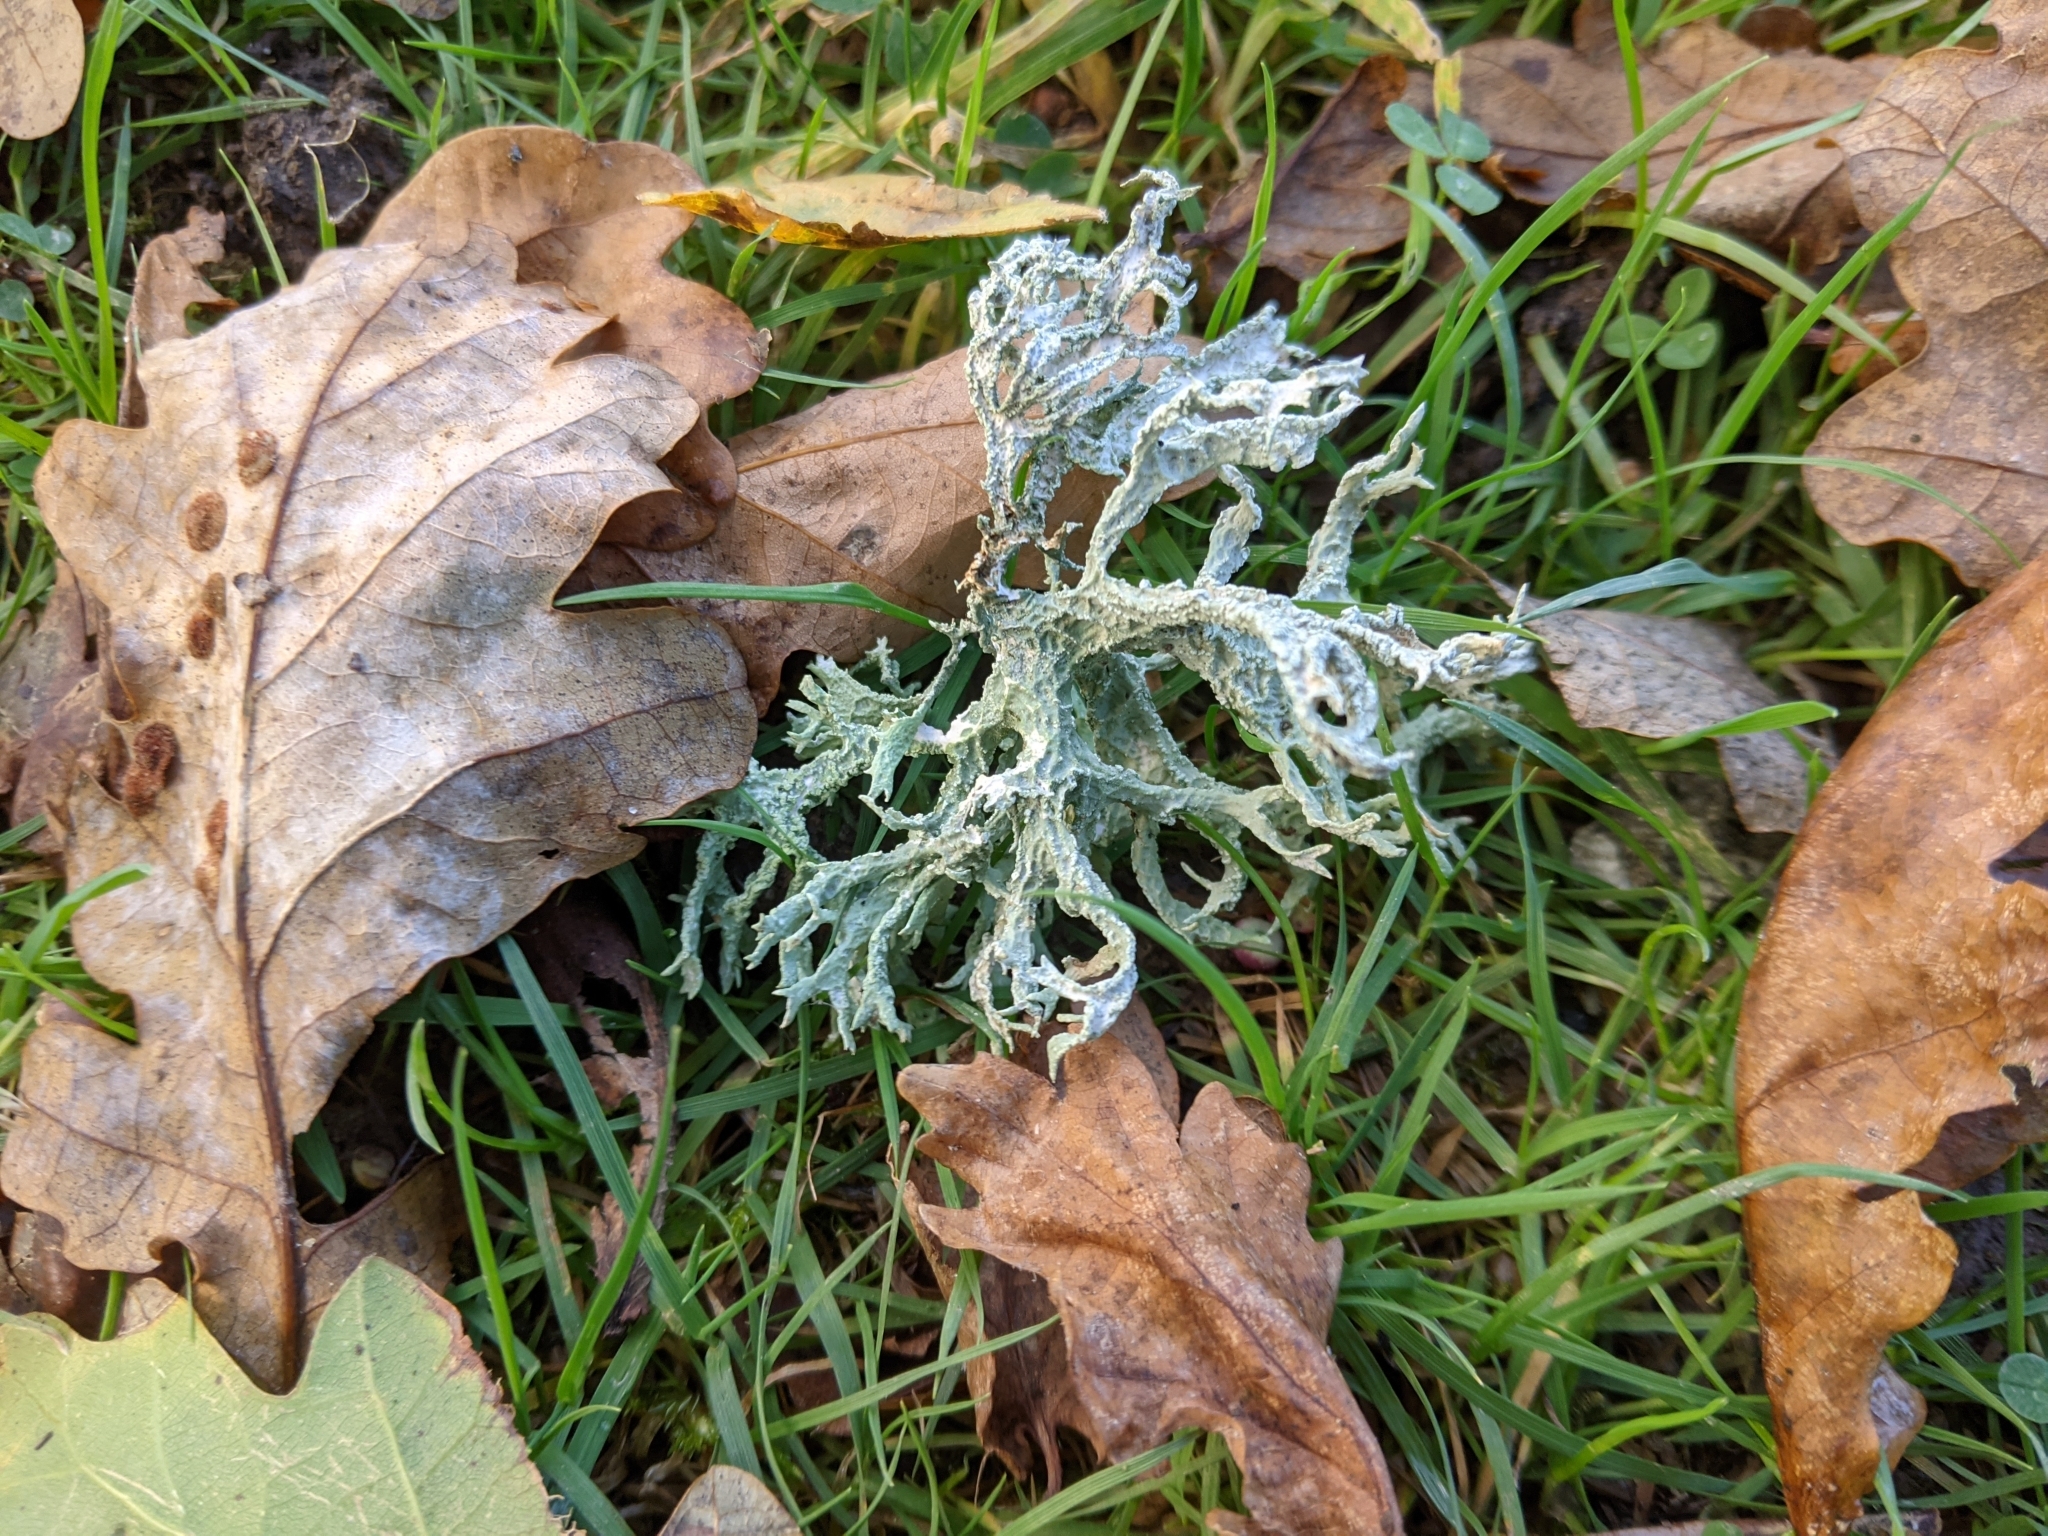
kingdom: Fungi
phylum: Ascomycota
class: Lecanoromycetes
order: Lecanorales
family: Parmeliaceae
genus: Evernia
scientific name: Evernia prunastri
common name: Oak moss
